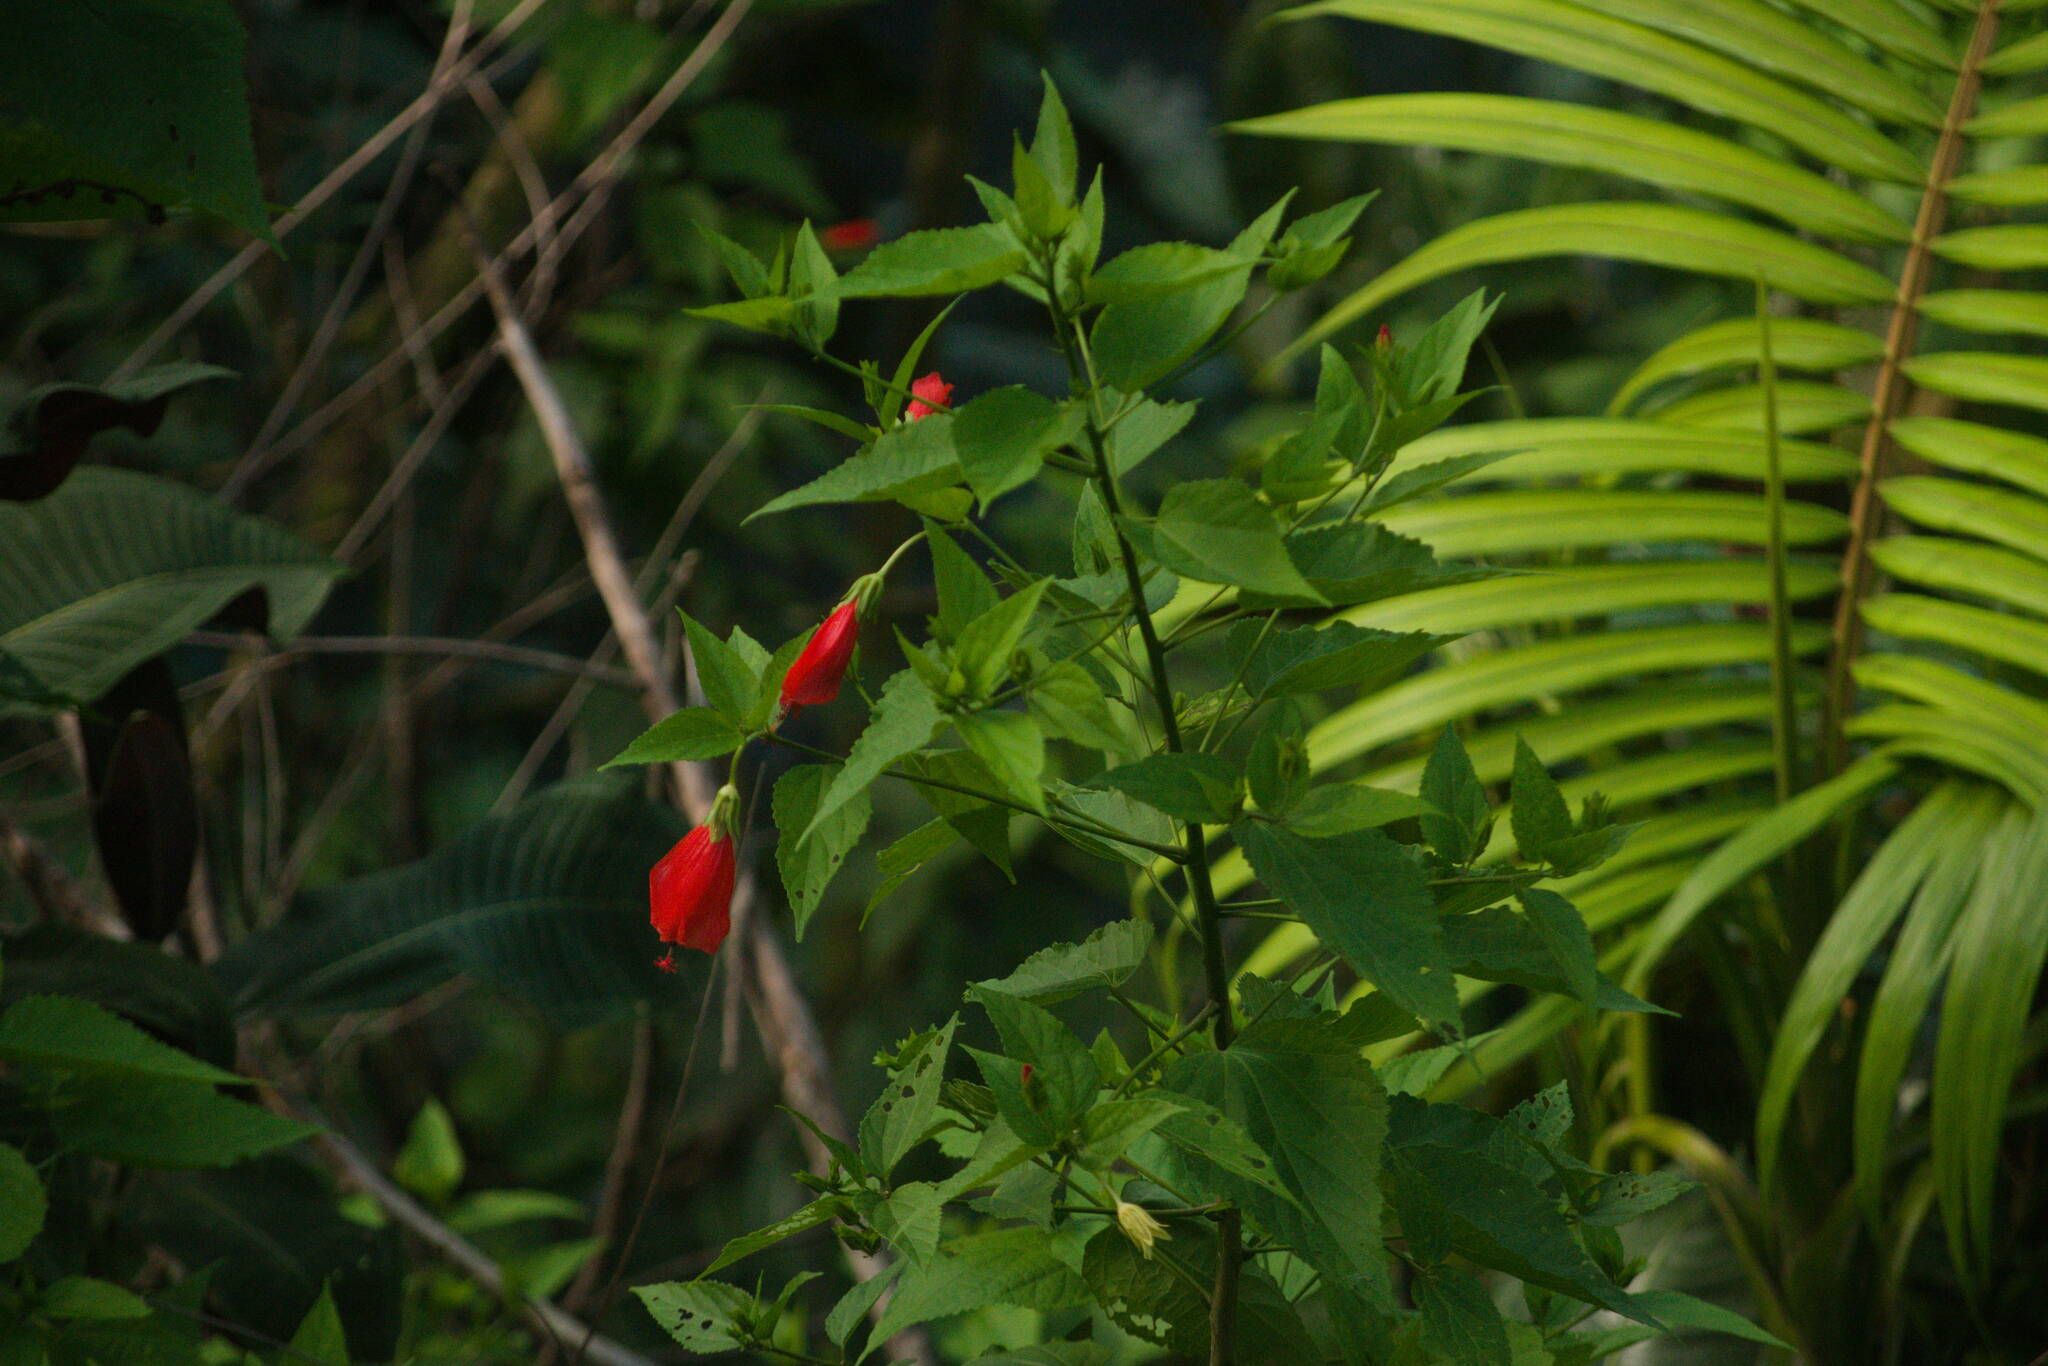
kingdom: Plantae
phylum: Tracheophyta
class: Magnoliopsida
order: Malvales
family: Malvaceae
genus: Malvaviscus
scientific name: Malvaviscus penduliflorus
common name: Mazapan
